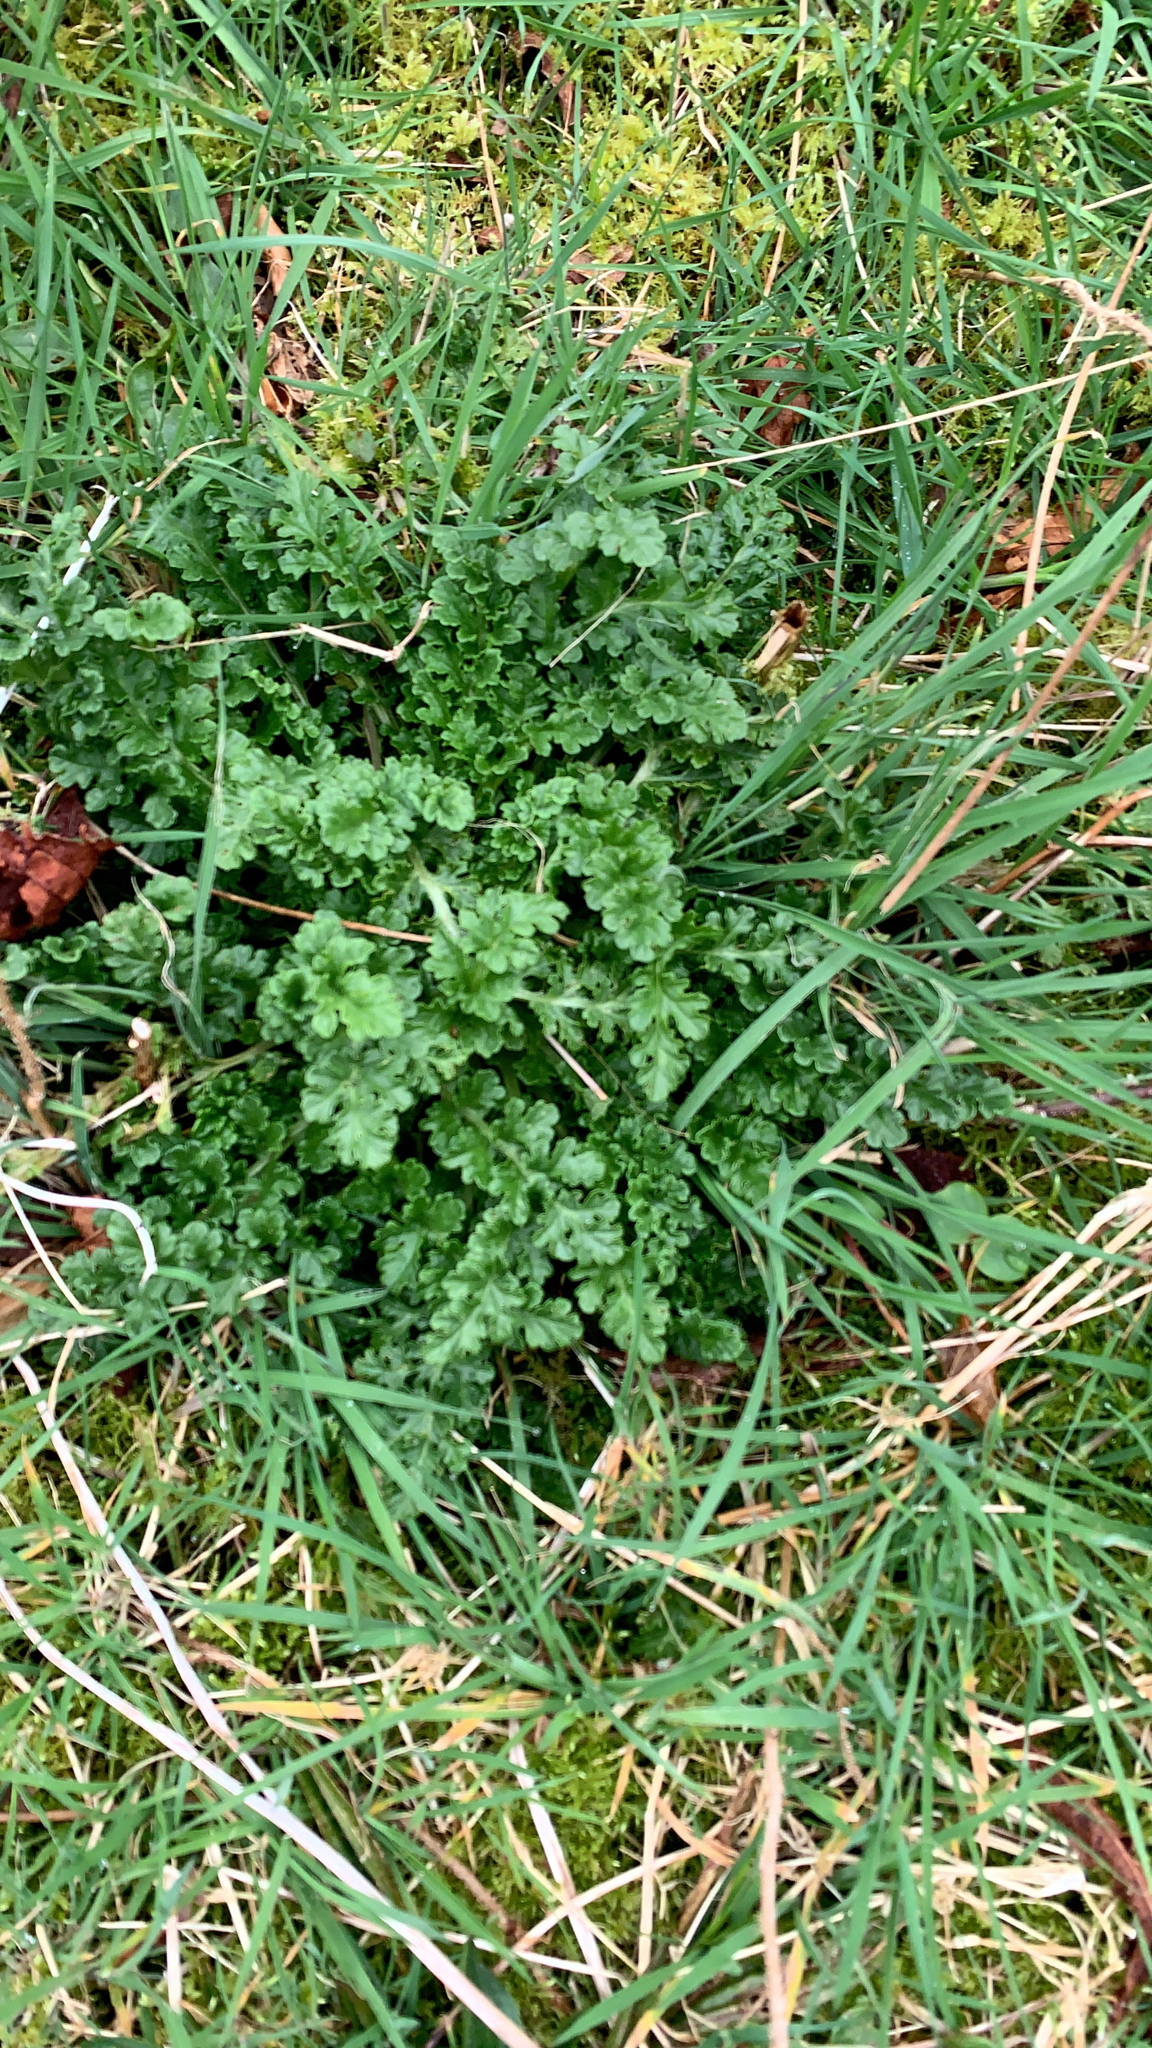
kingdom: Plantae
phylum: Tracheophyta
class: Magnoliopsida
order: Asterales
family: Asteraceae
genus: Jacobaea
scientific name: Jacobaea vulgaris
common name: Stinking willie
